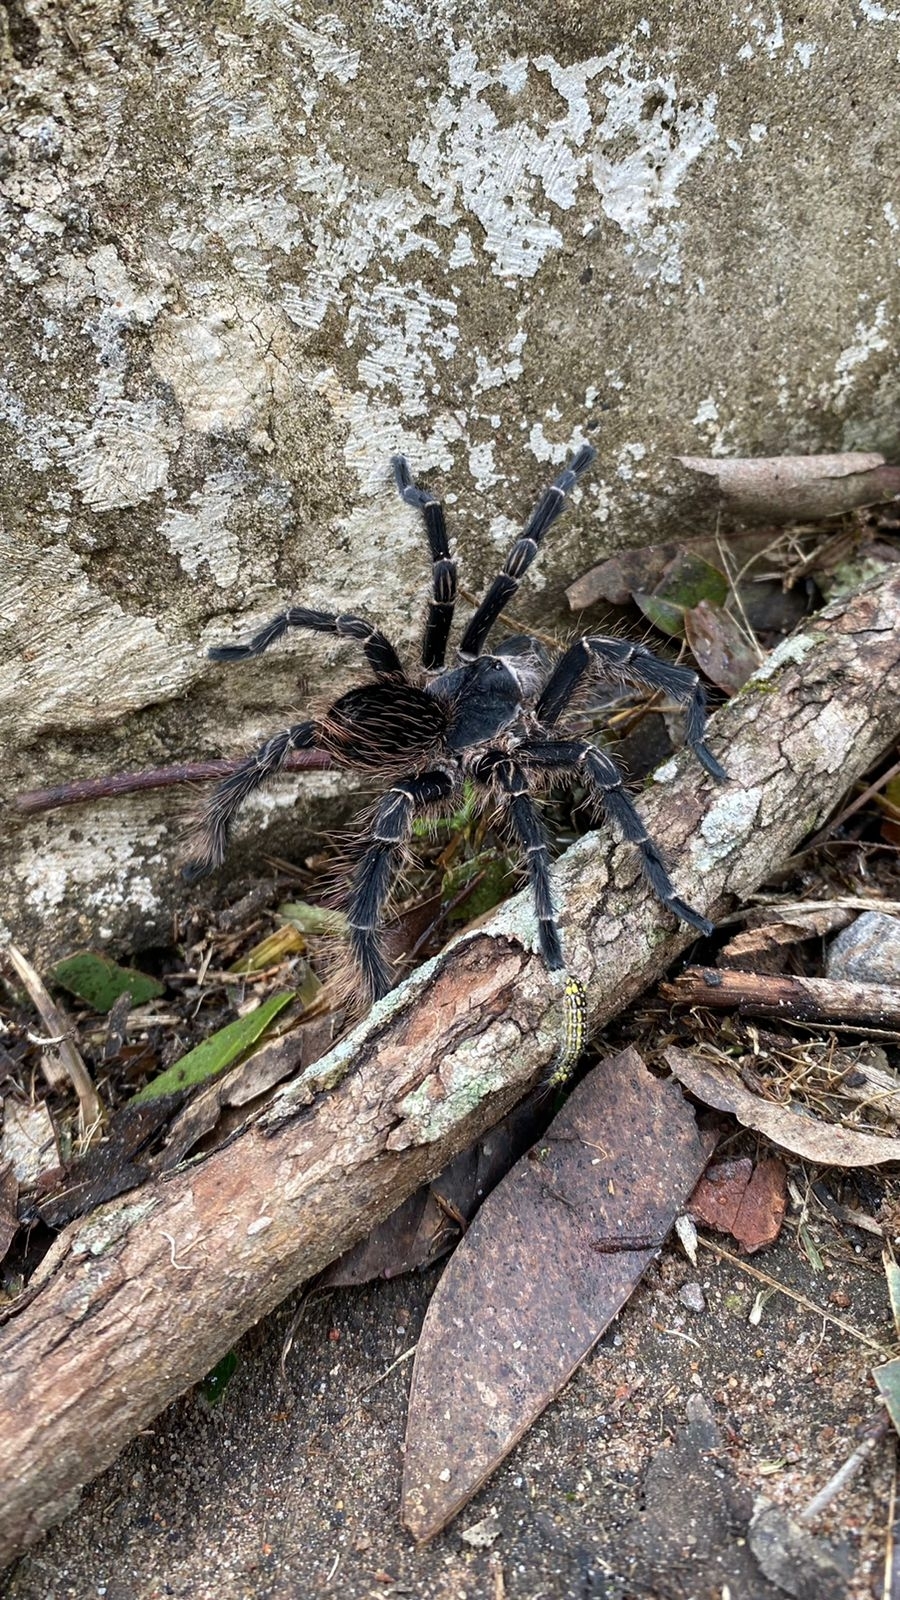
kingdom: Animalia
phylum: Arthropoda
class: Arachnida
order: Araneae
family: Theraphosidae
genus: Eupalaestrus
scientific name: Eupalaestrus roccoi
